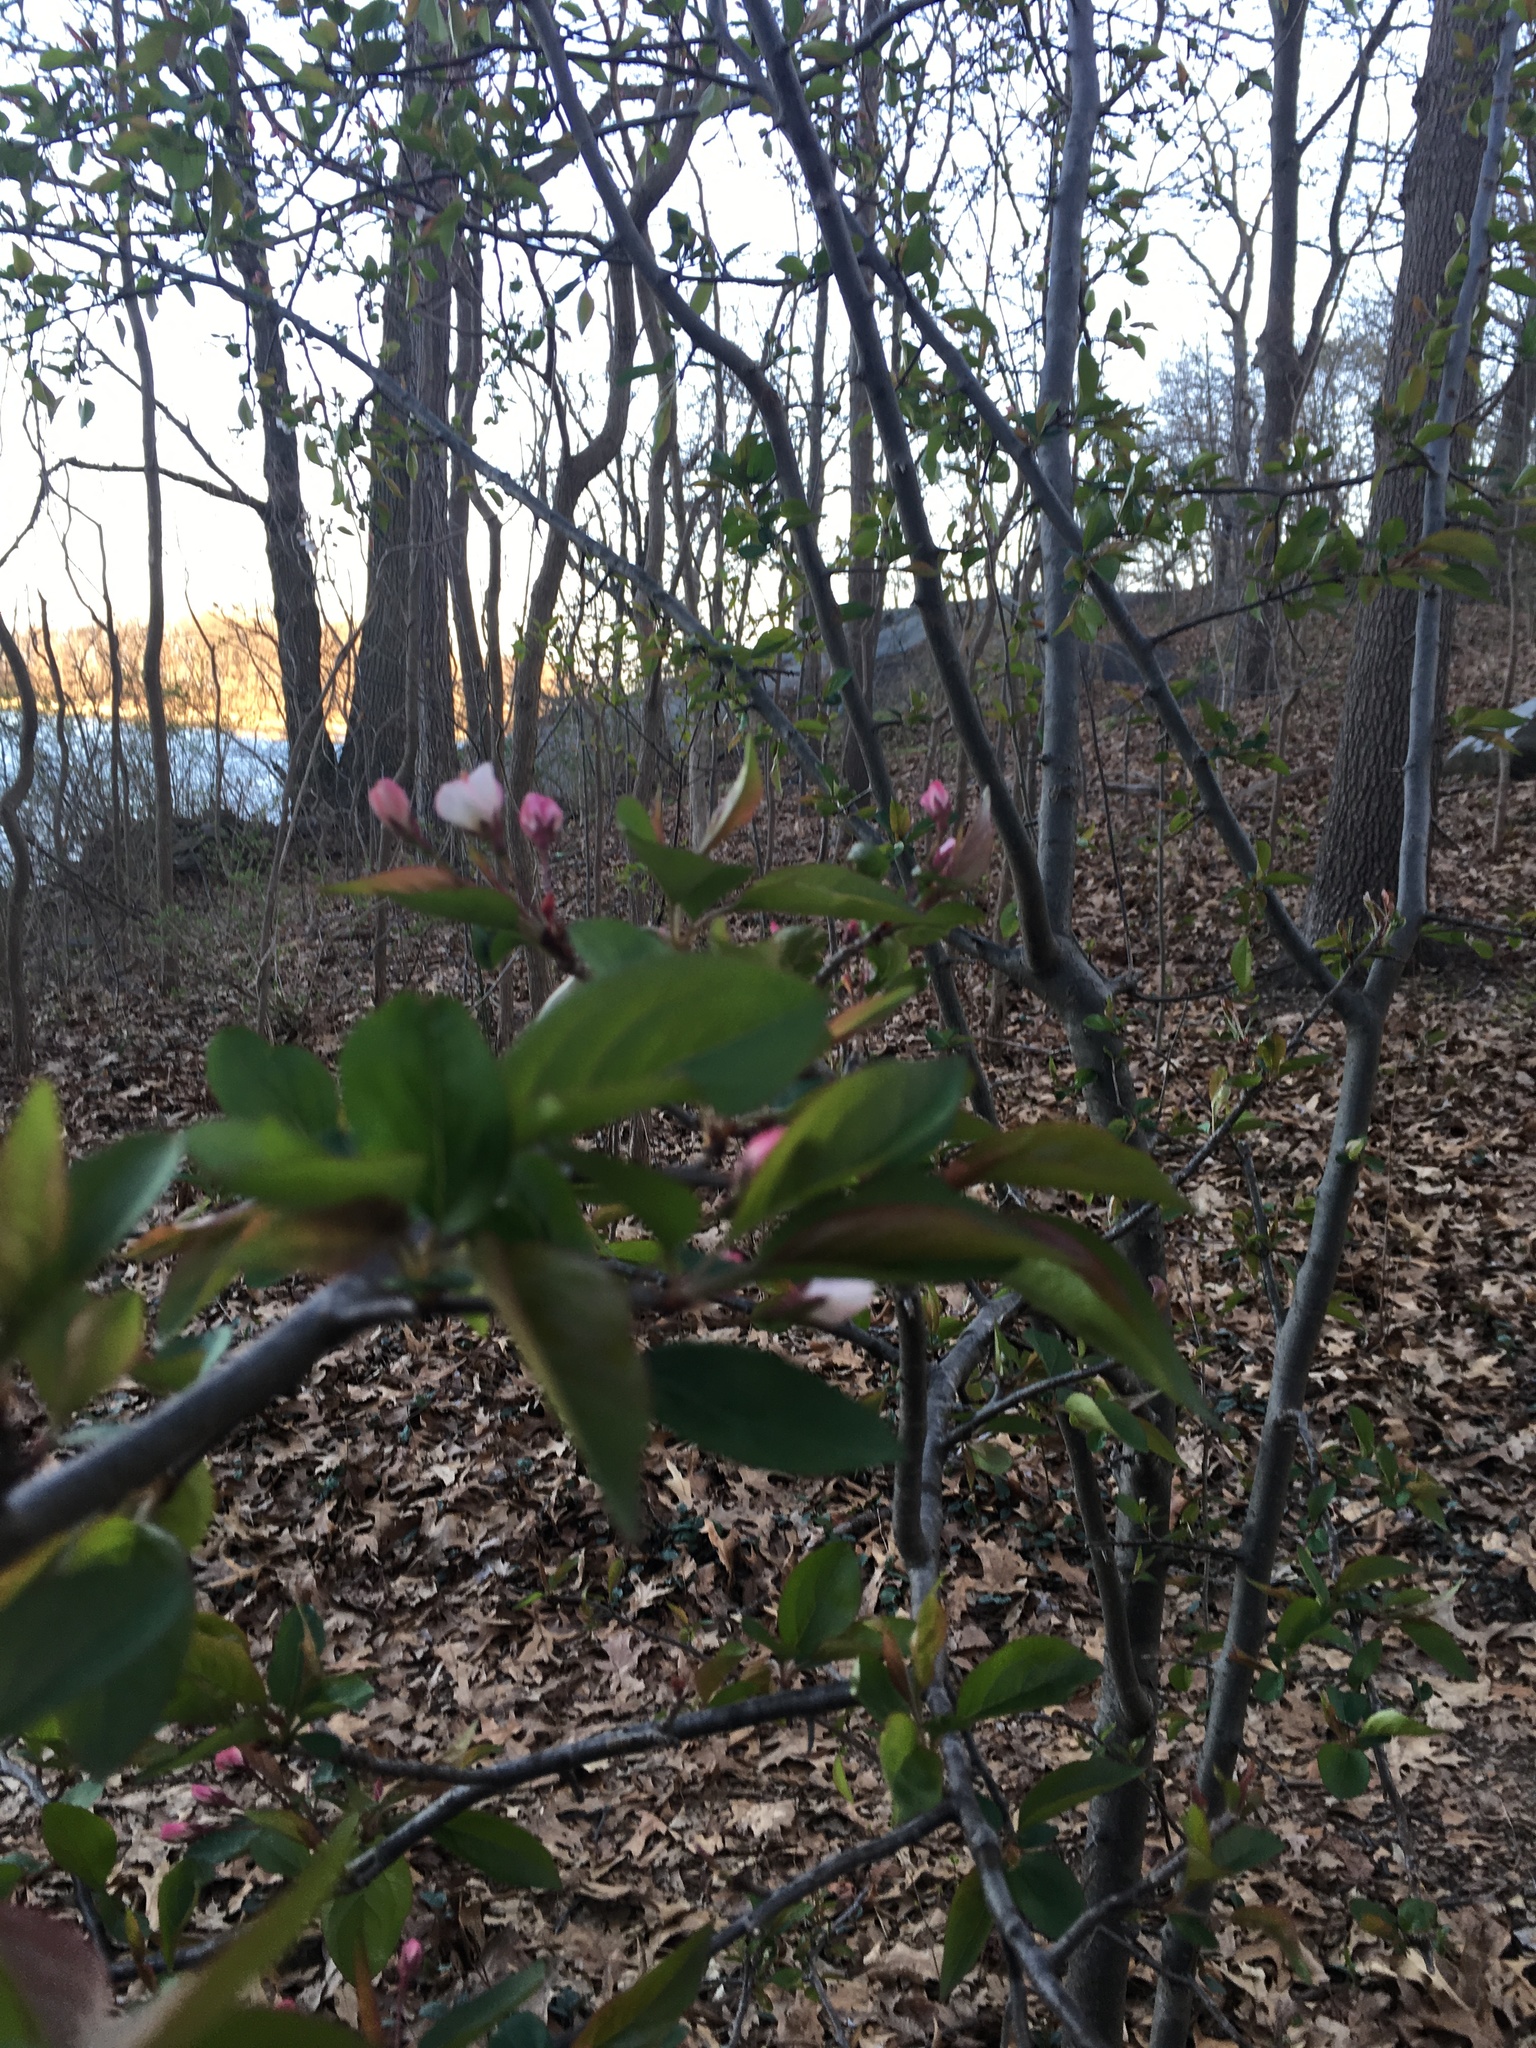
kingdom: Plantae
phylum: Tracheophyta
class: Magnoliopsida
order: Rosales
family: Rosaceae
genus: Malus
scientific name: Malus hupehensis
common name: Chinese crab apple
